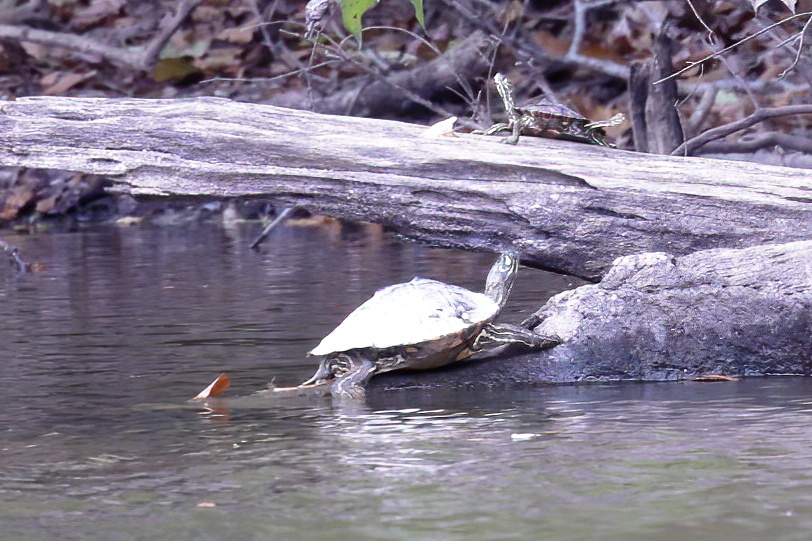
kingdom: Animalia
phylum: Chordata
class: Testudines
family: Emydidae
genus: Graptemys
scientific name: Graptemys oculifera
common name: Ringed map turtle
